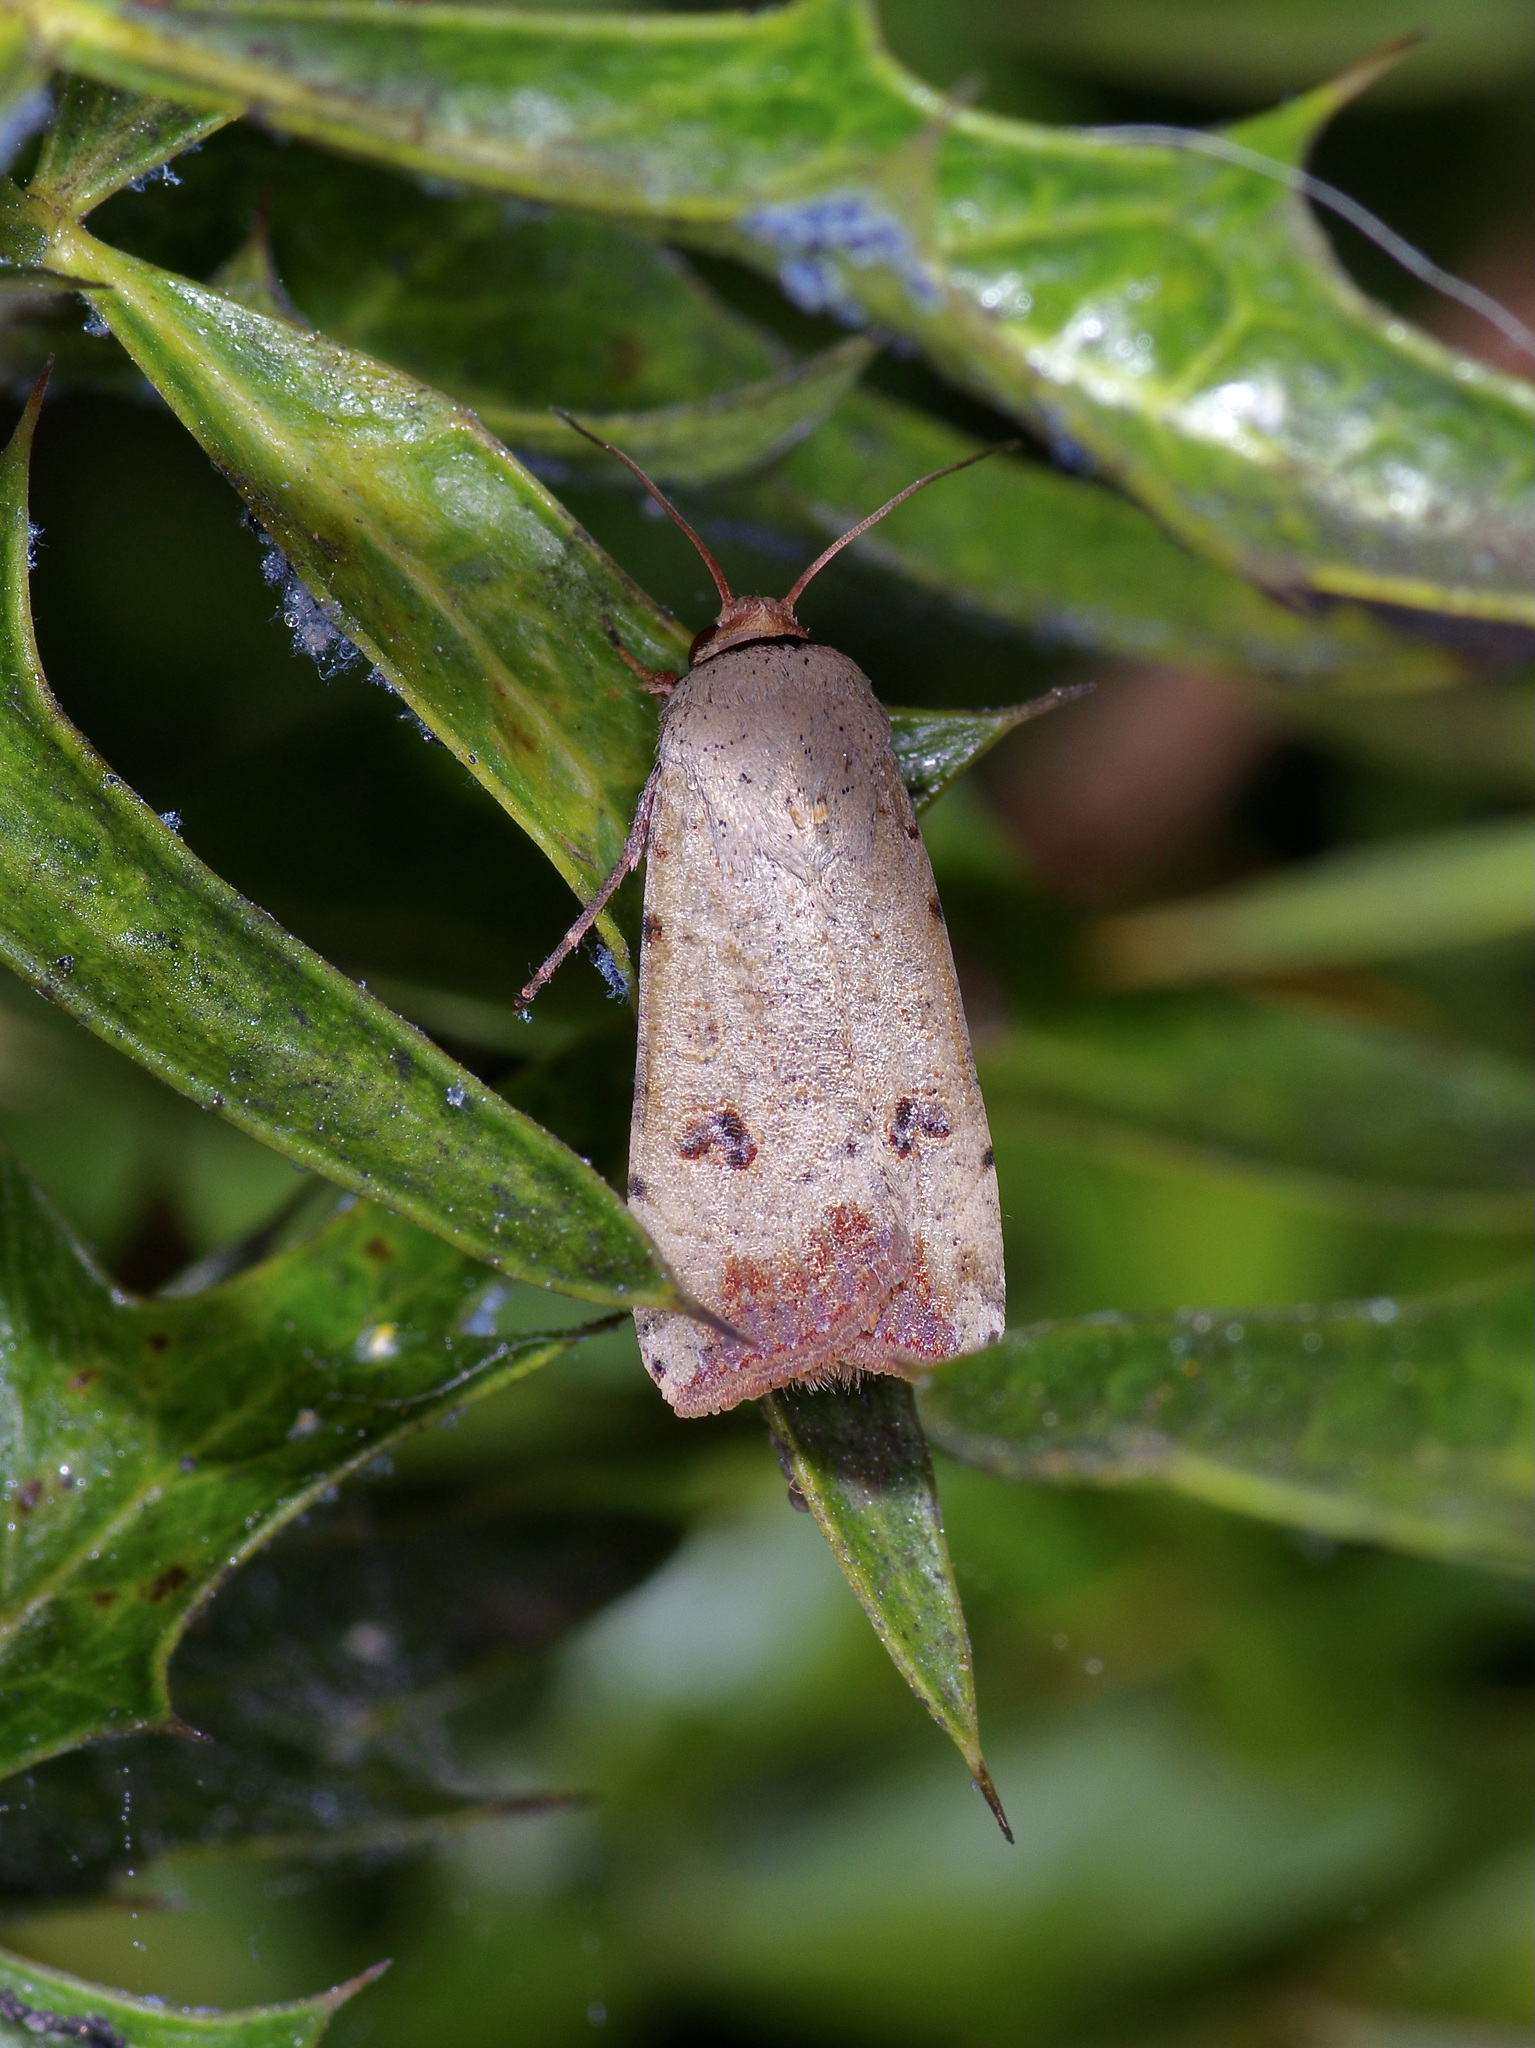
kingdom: Animalia
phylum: Arthropoda
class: Insecta
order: Lepidoptera
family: Noctuidae
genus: Anicla
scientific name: Anicla infecta
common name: Green cutworm
